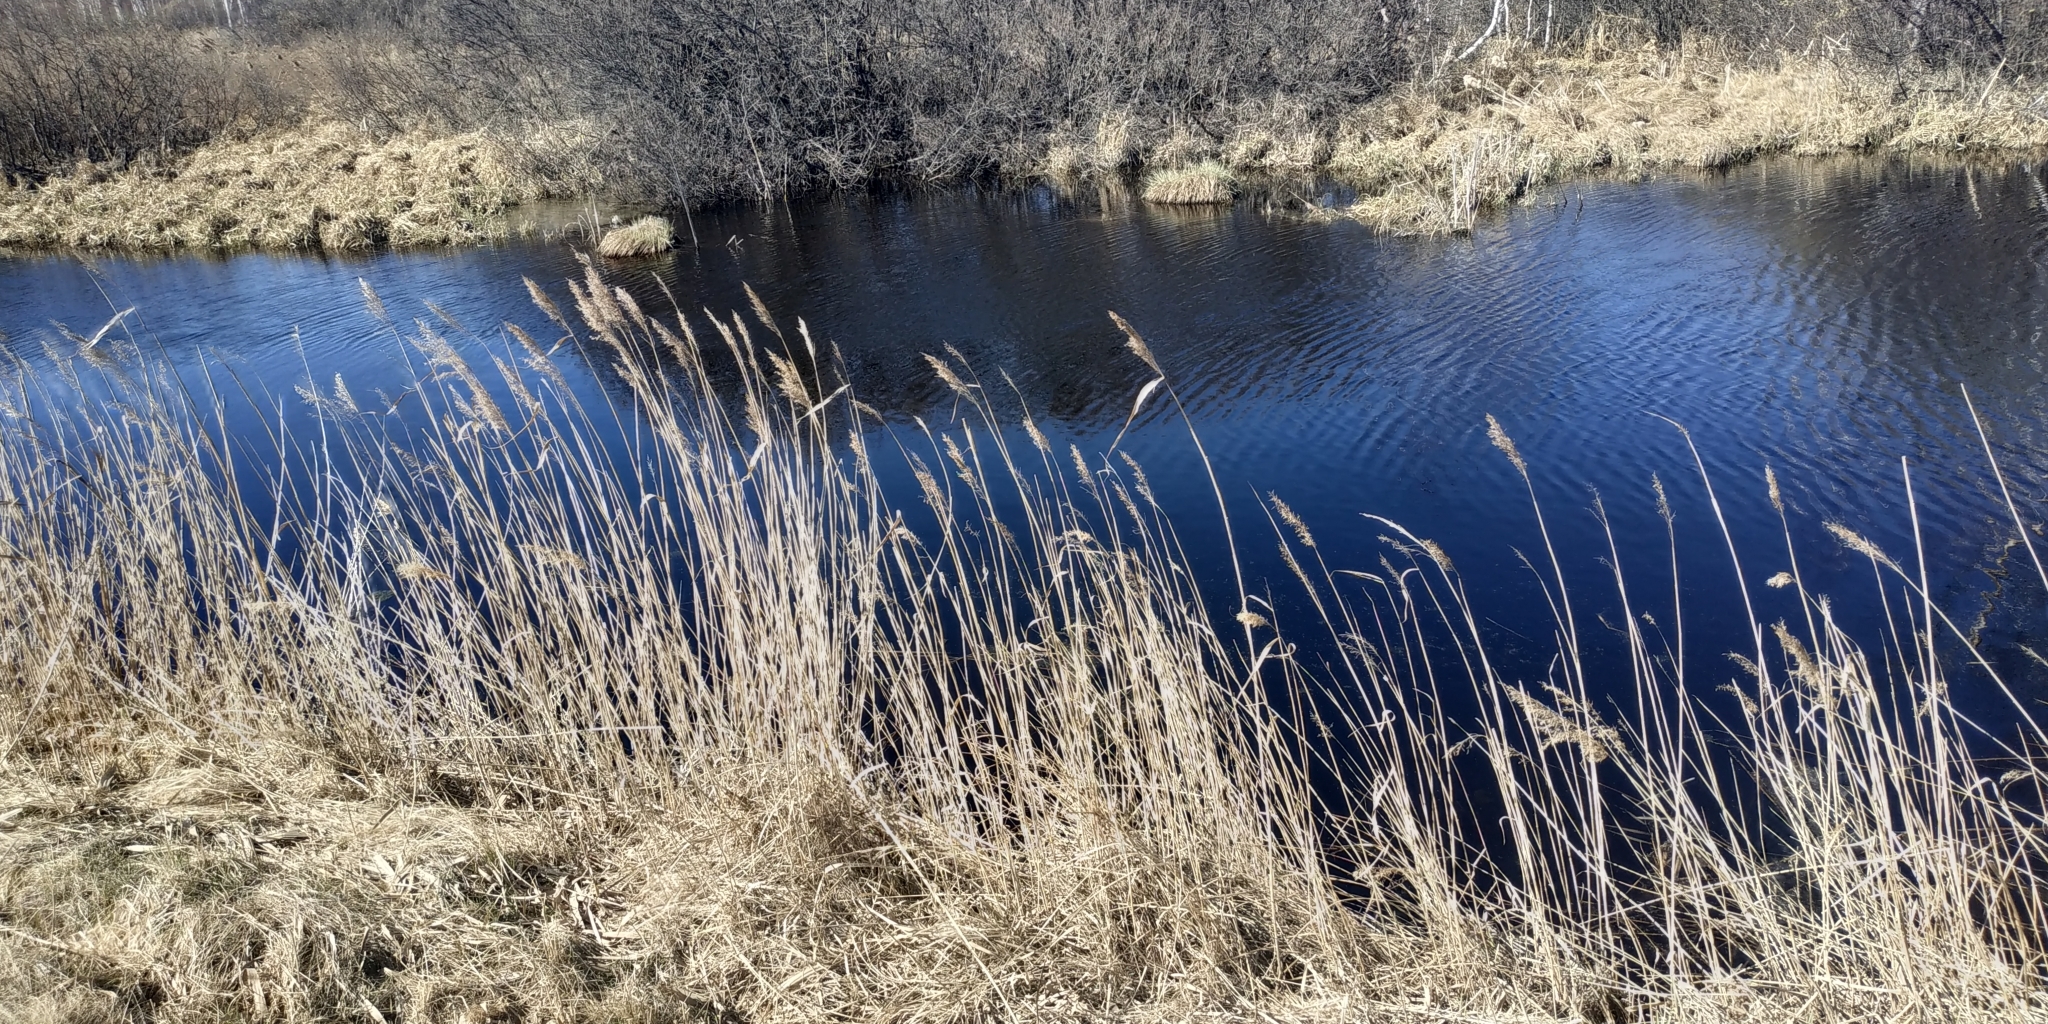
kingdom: Plantae
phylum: Tracheophyta
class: Liliopsida
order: Poales
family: Poaceae
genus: Phragmites
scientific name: Phragmites australis
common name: Common reed
